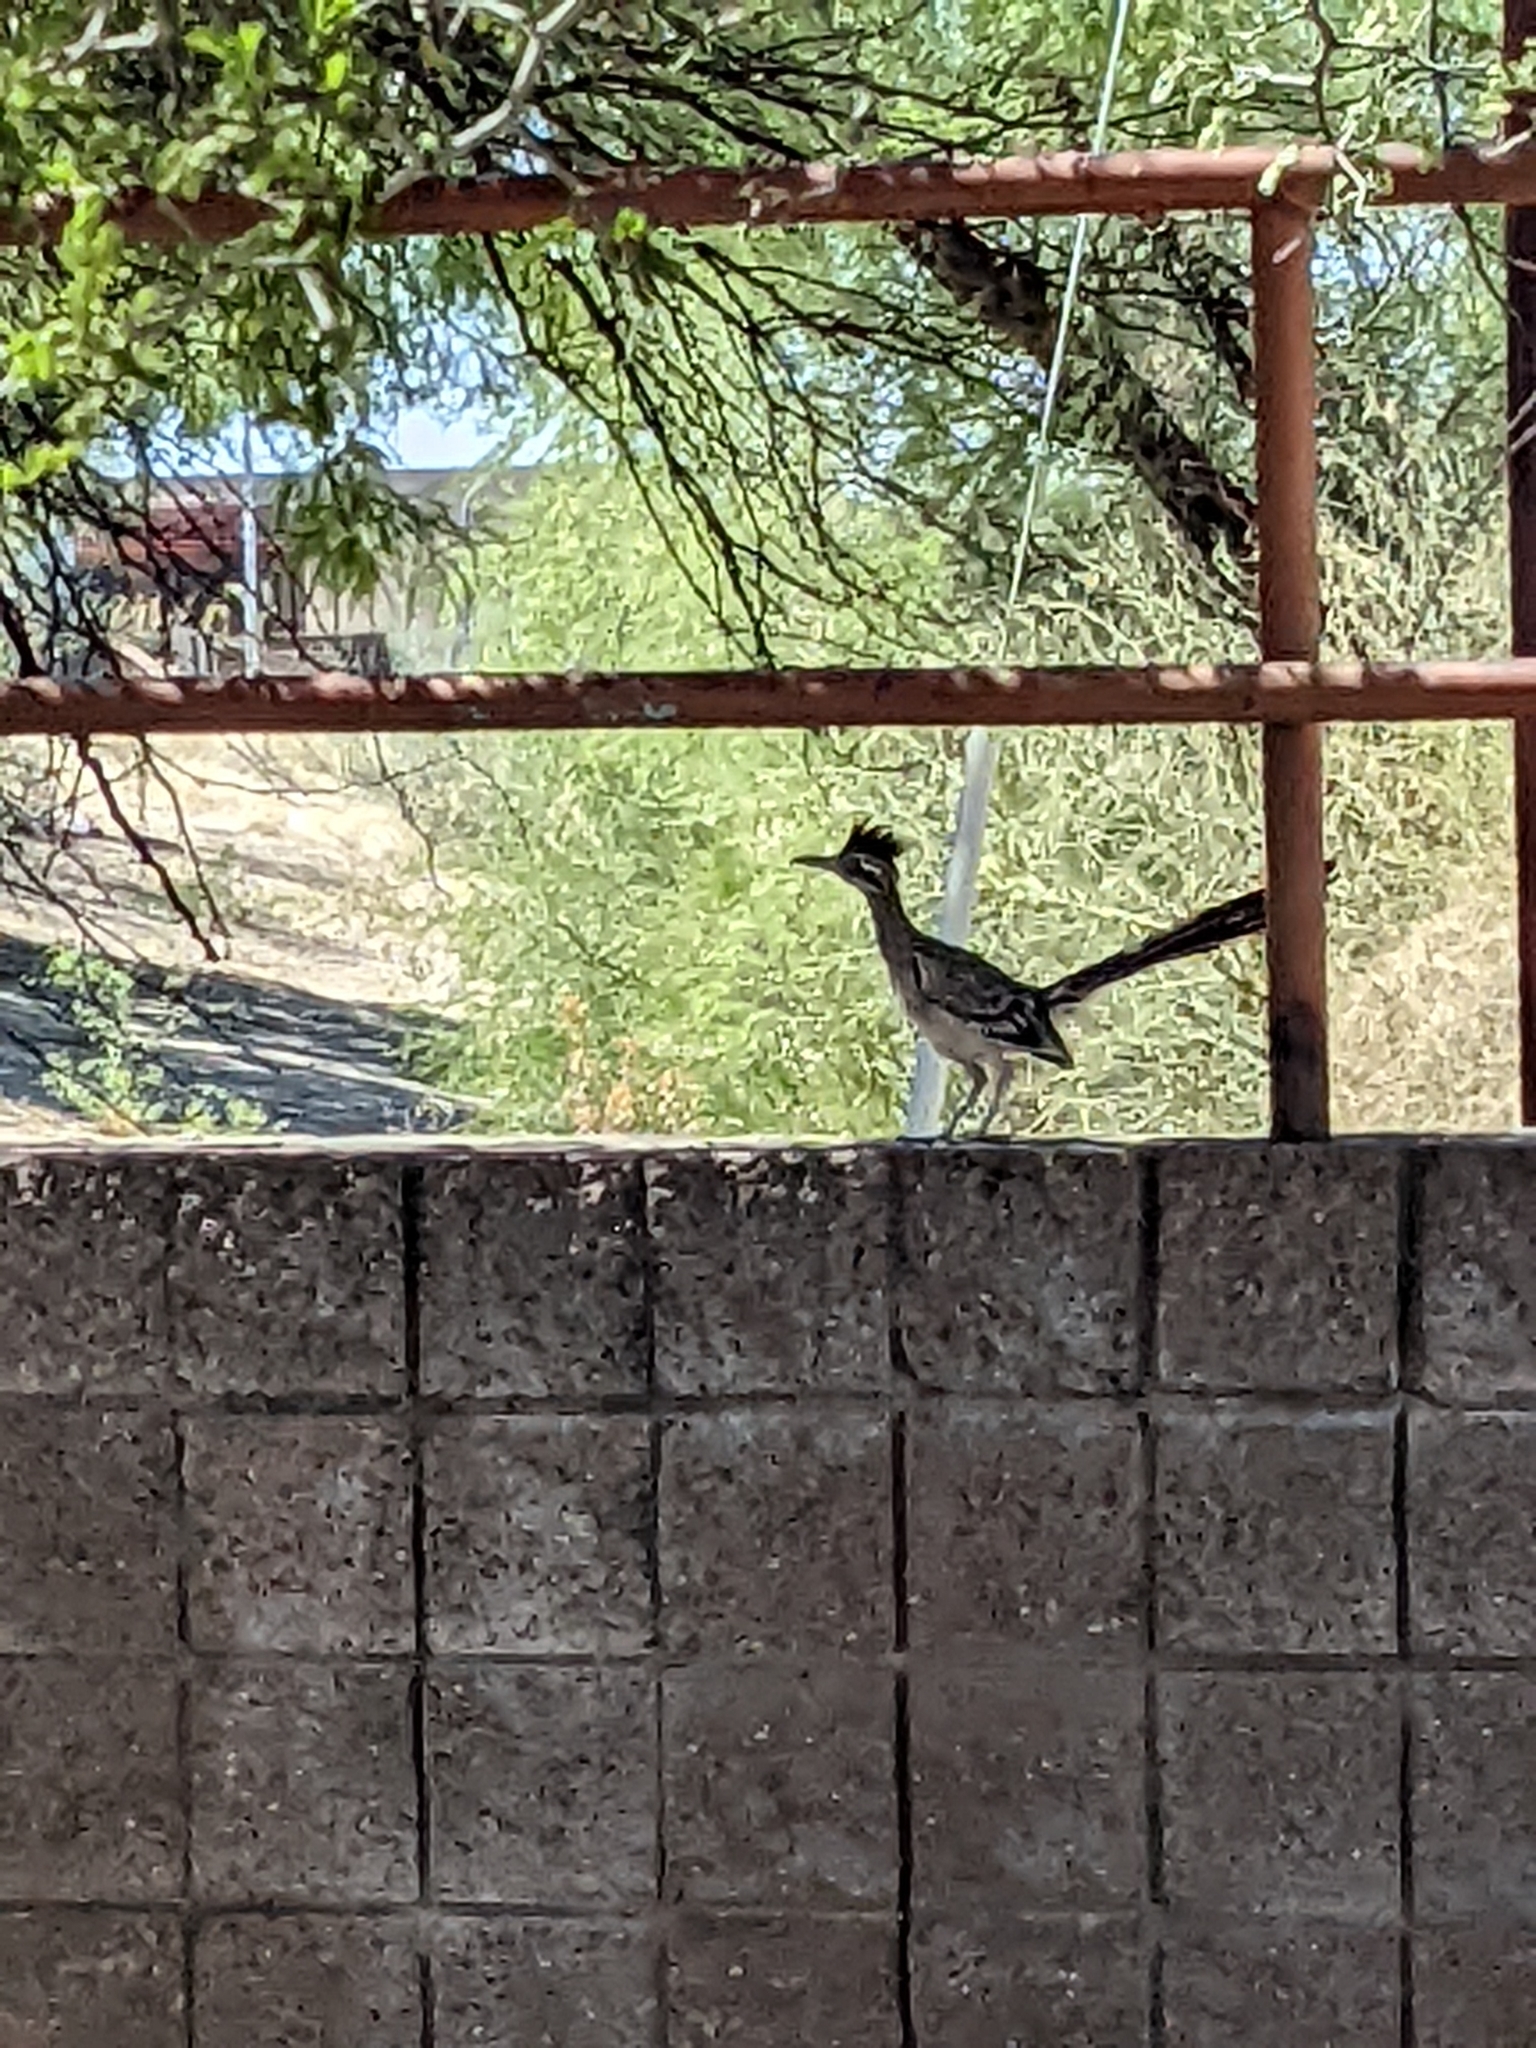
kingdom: Animalia
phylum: Chordata
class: Aves
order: Cuculiformes
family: Cuculidae
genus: Geococcyx
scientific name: Geococcyx californianus
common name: Greater roadrunner
